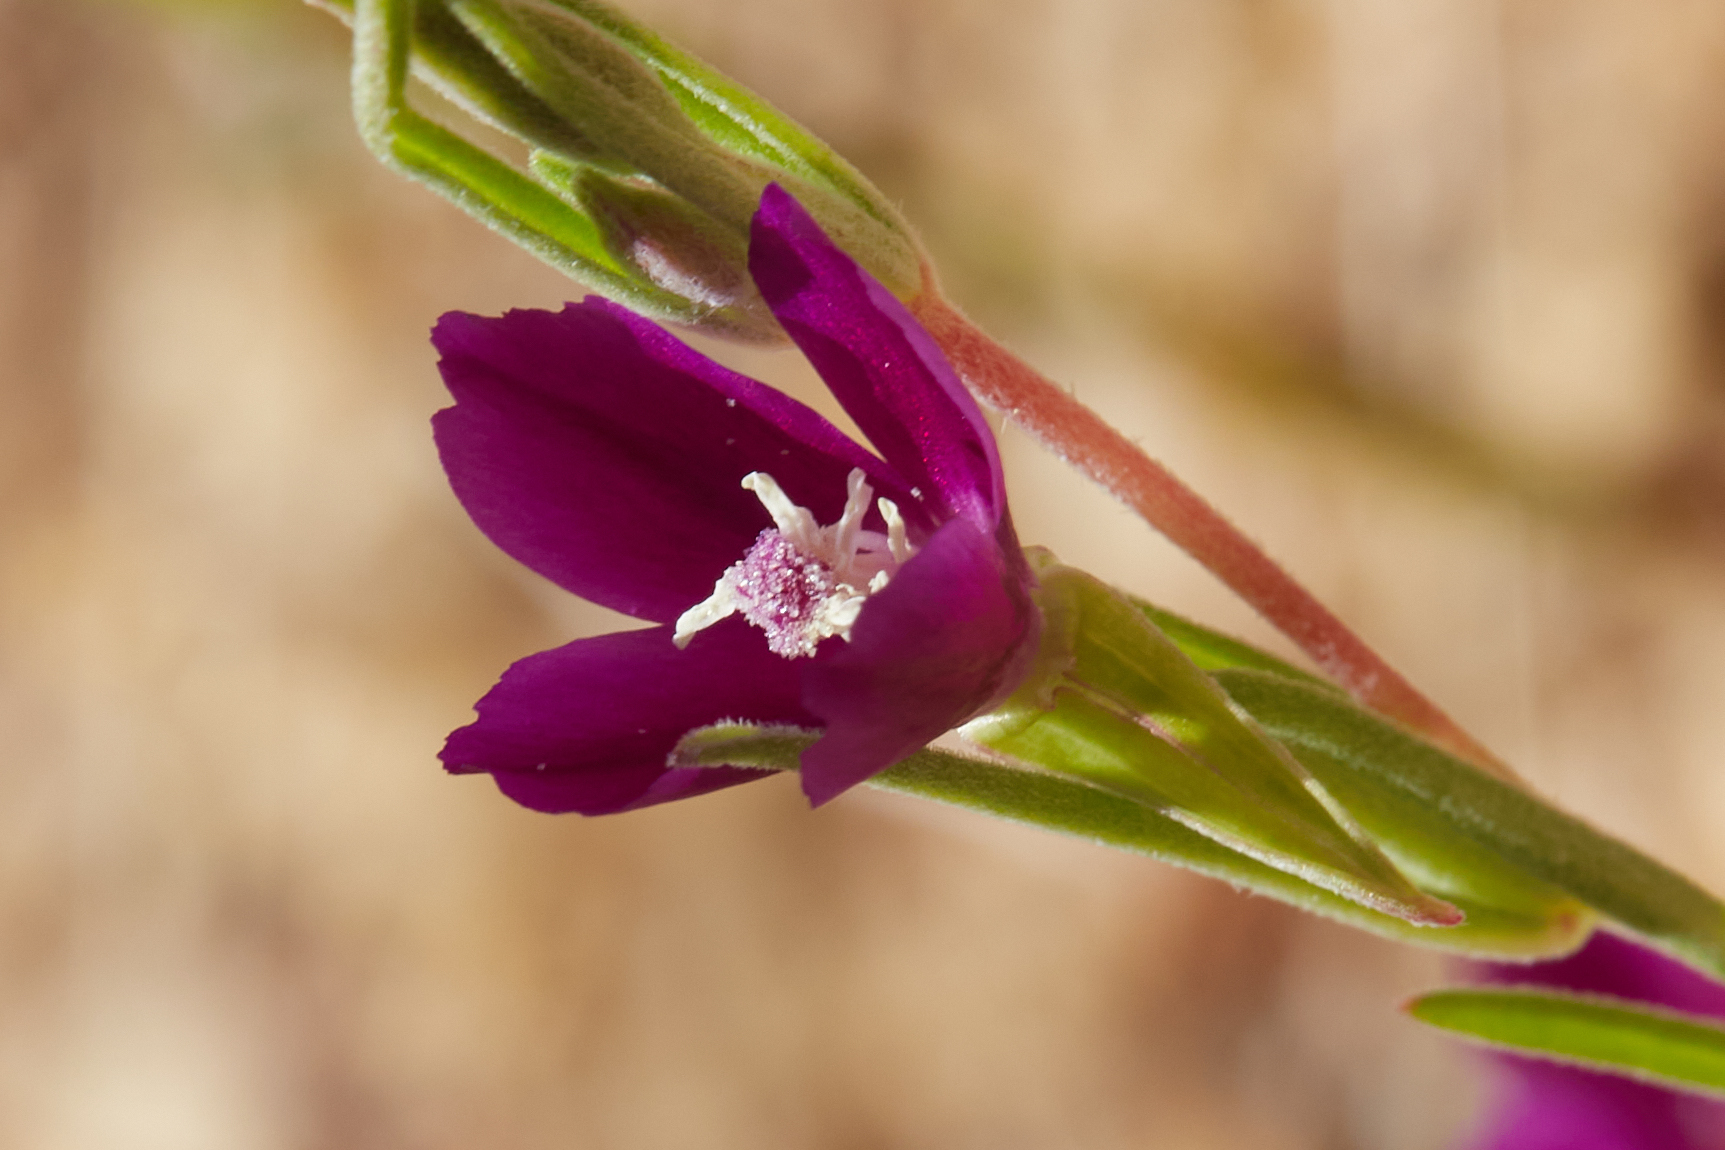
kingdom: Plantae
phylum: Tracheophyta
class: Magnoliopsida
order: Myrtales
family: Onagraceae
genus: Clarkia
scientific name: Clarkia purpurea
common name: Purple clarkia
